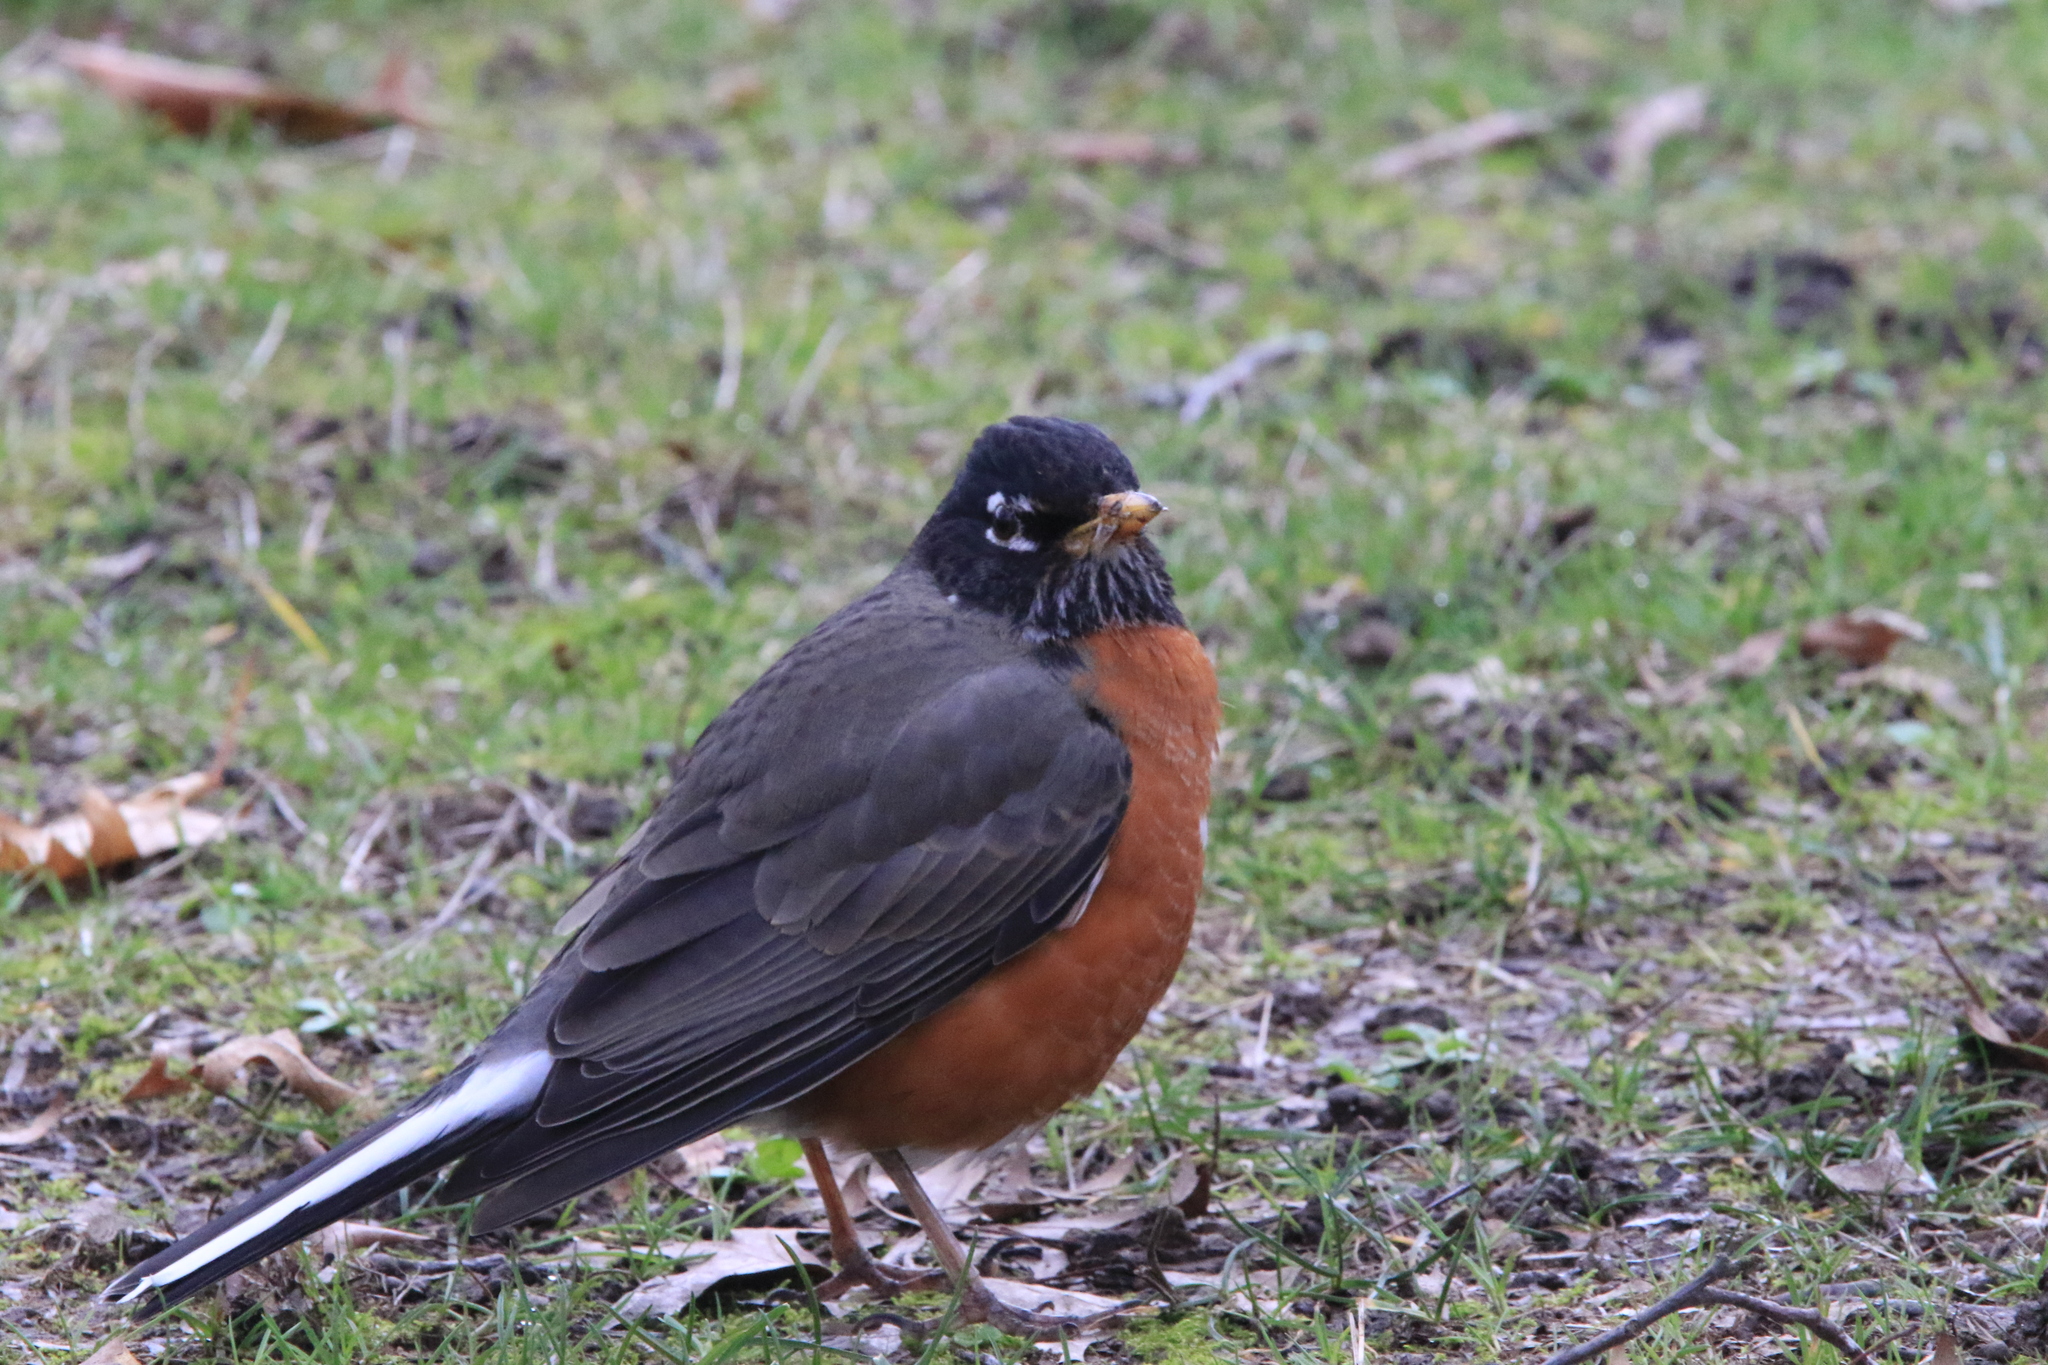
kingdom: Animalia
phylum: Chordata
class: Aves
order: Passeriformes
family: Turdidae
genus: Turdus
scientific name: Turdus migratorius
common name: American robin
